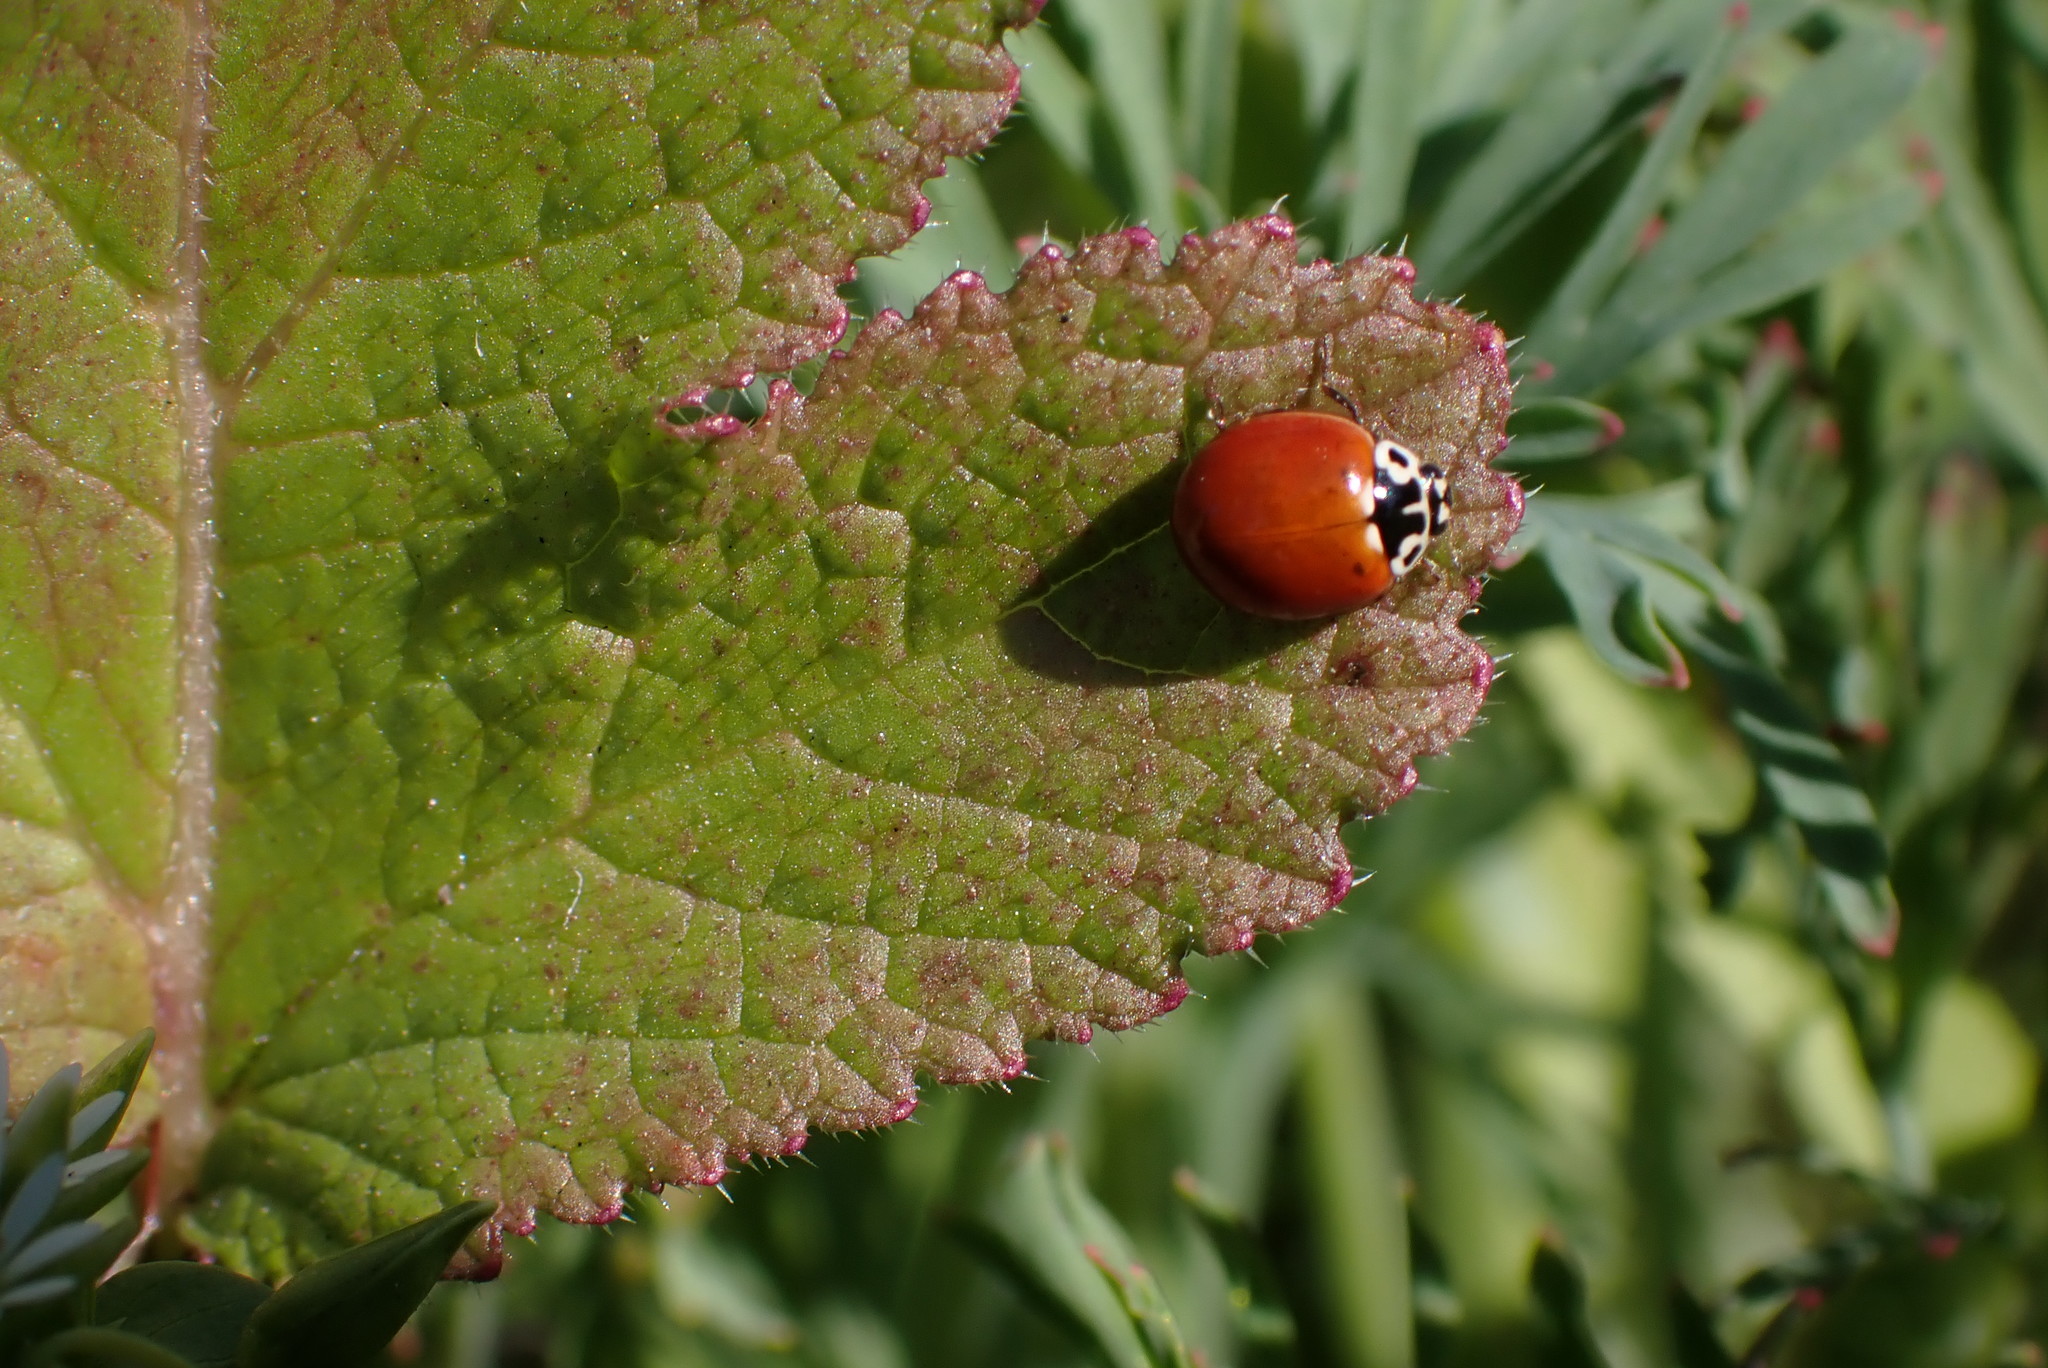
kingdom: Animalia
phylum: Arthropoda
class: Insecta
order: Coleoptera
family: Coccinellidae
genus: Cycloneda
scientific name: Cycloneda polita
